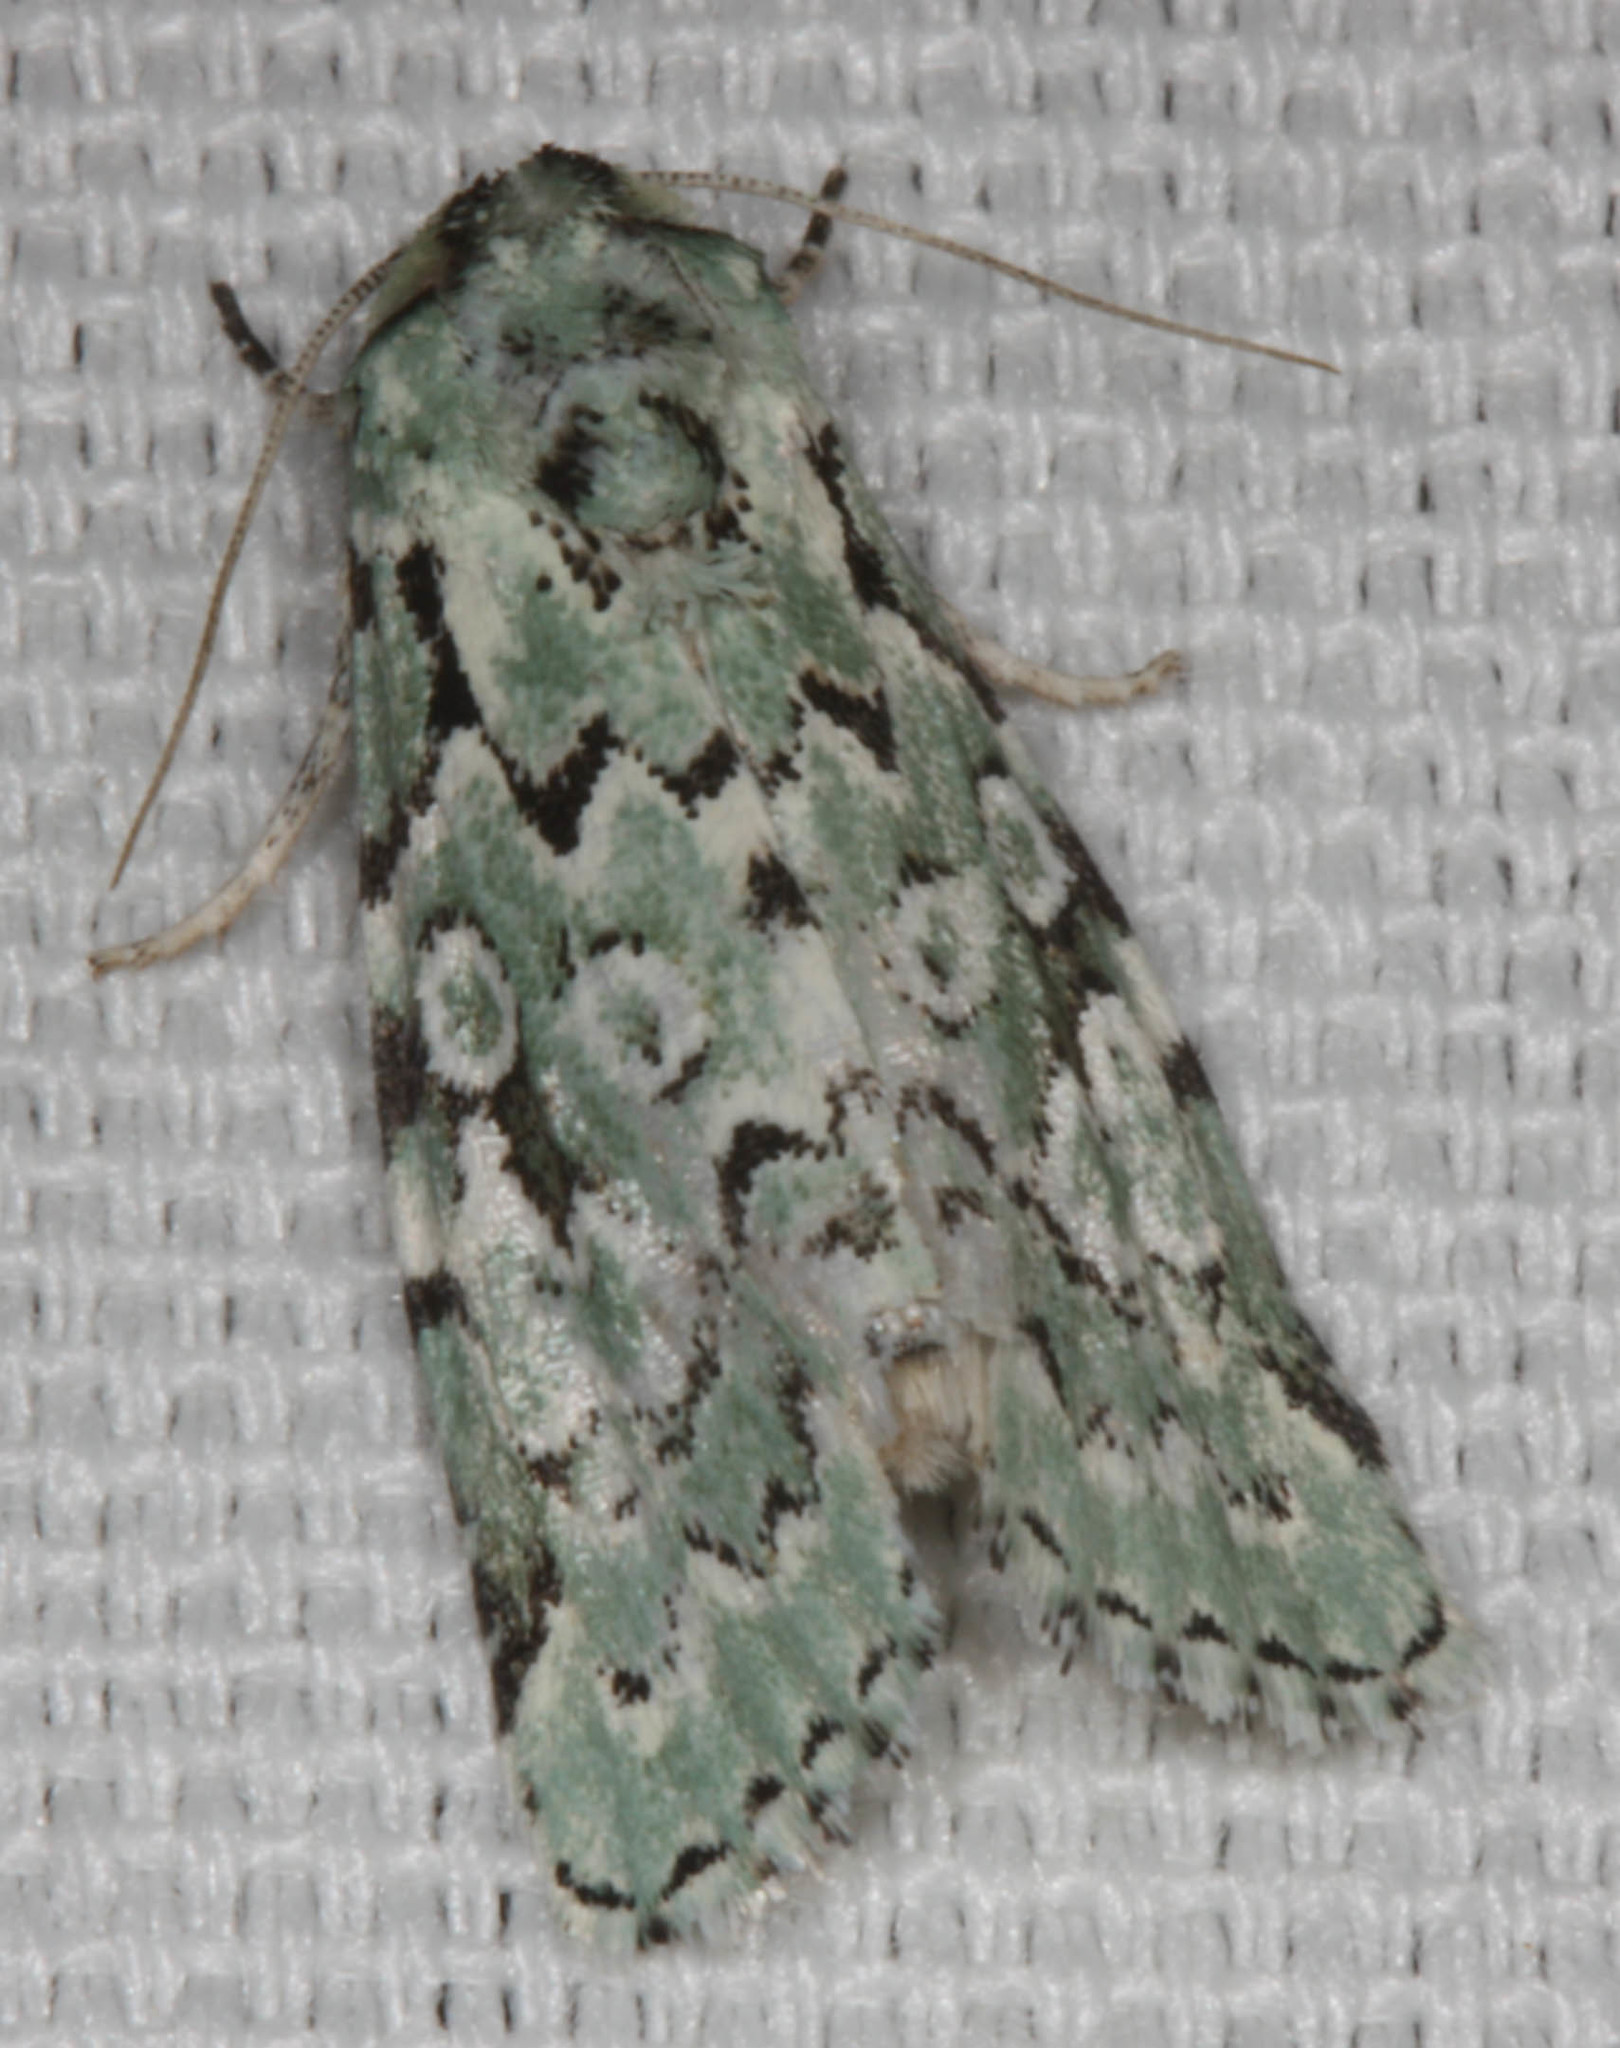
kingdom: Animalia
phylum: Arthropoda
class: Insecta
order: Lepidoptera
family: Noctuidae
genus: Bryolymnia
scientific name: Bryolymnia viridata
